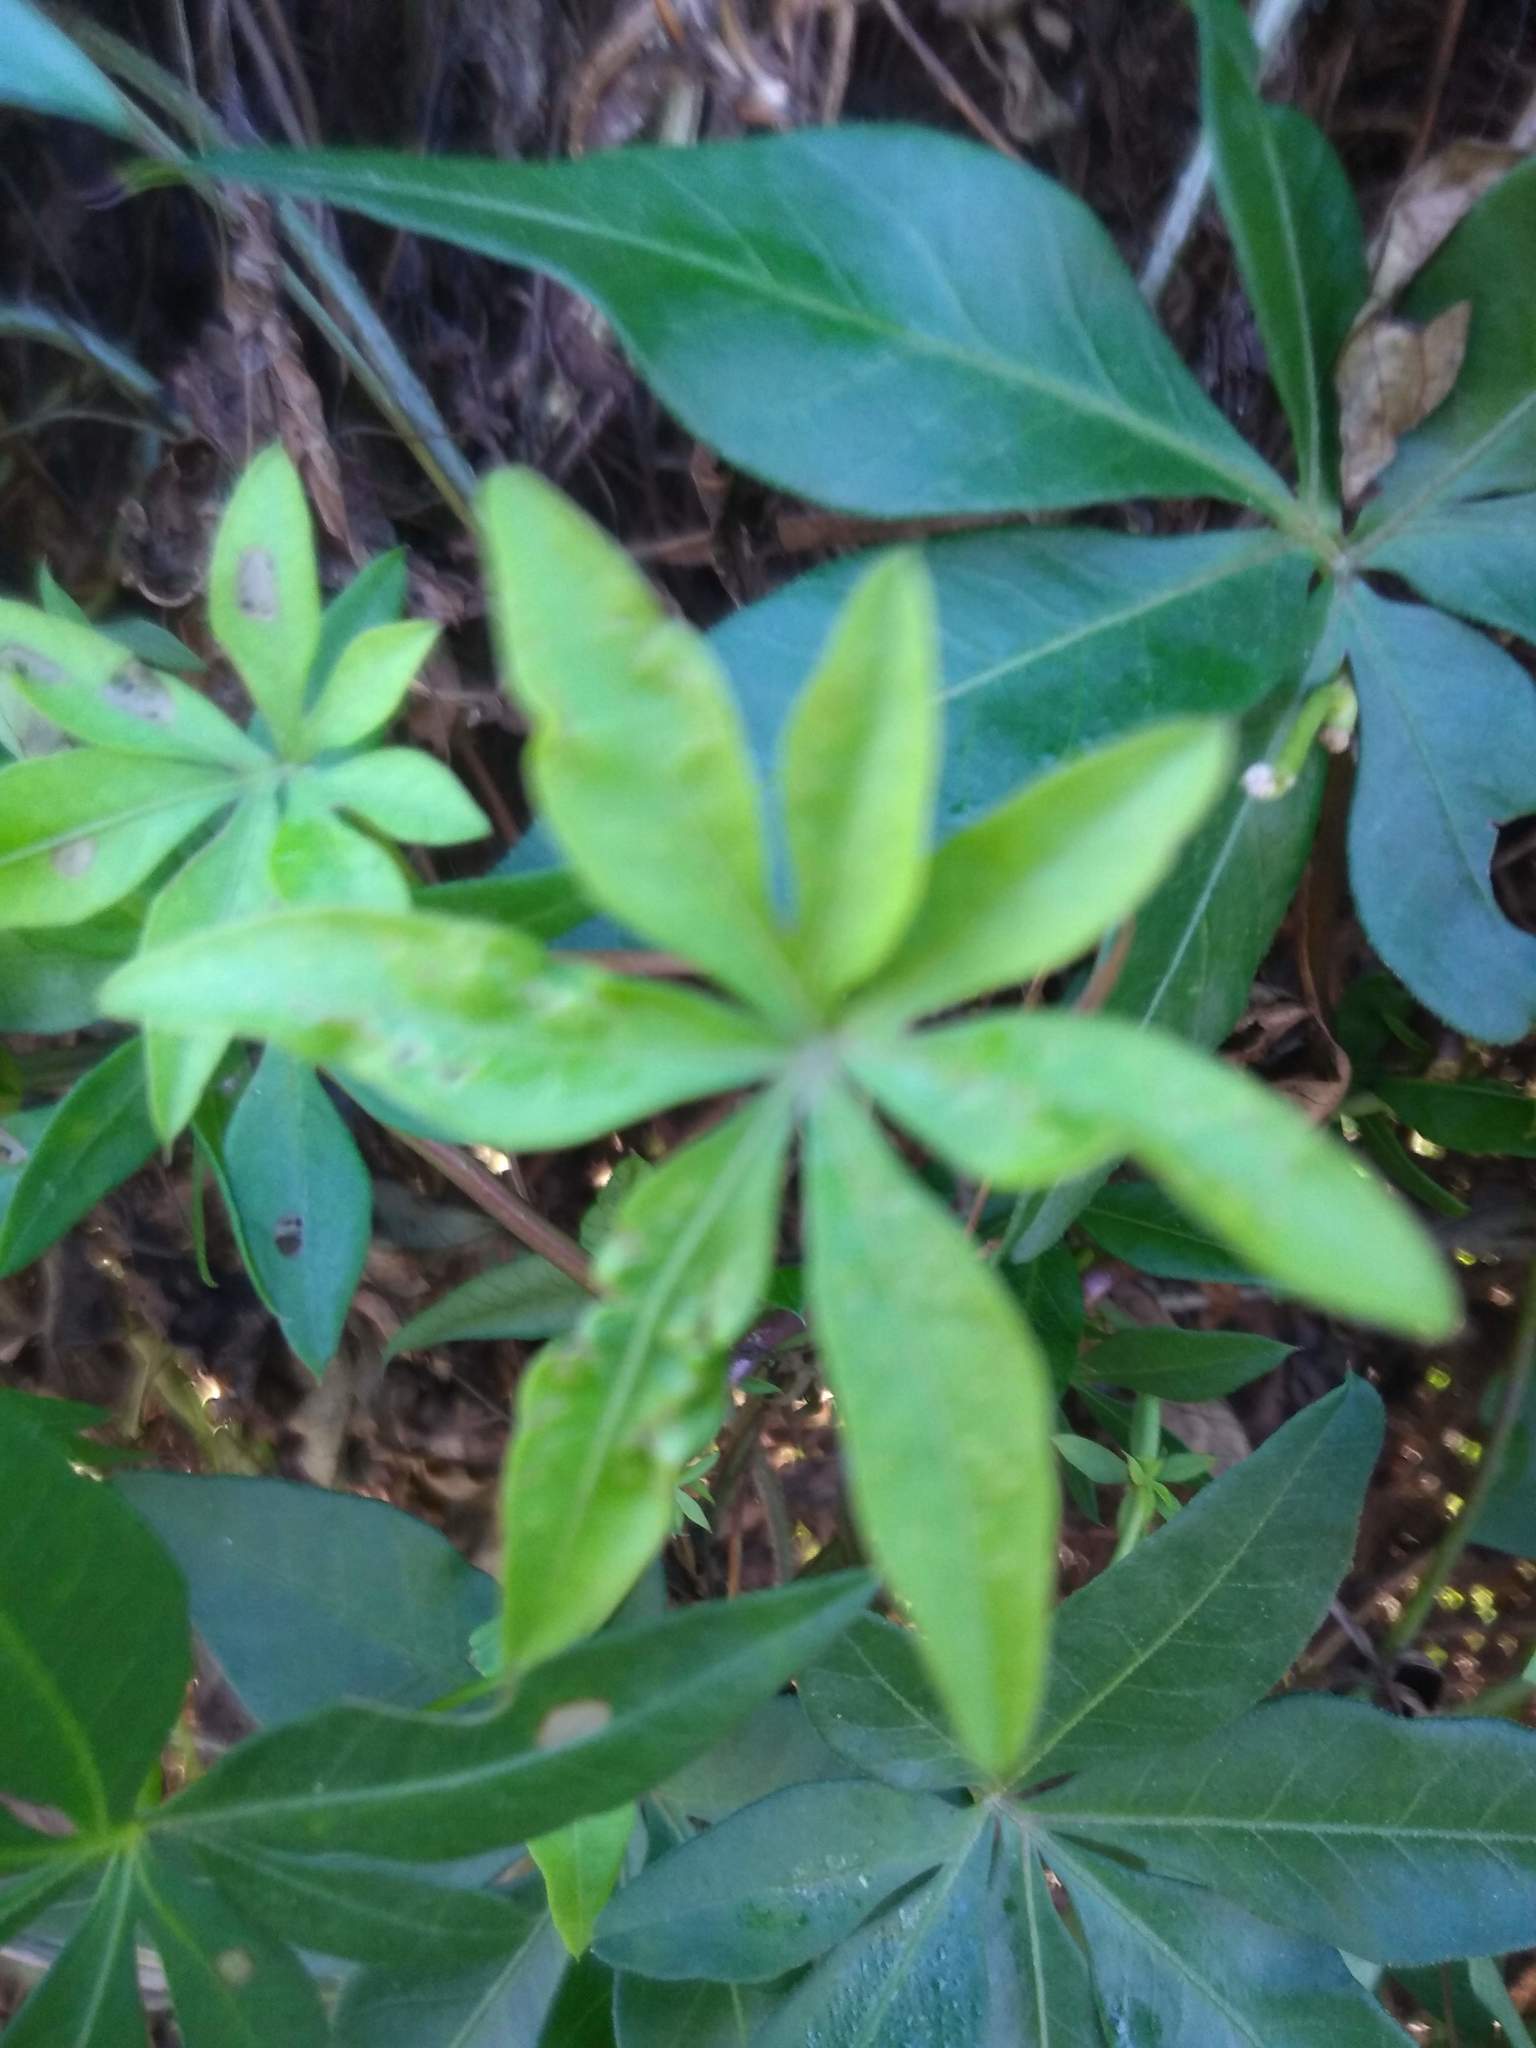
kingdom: Plantae
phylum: Tracheophyta
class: Magnoliopsida
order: Solanales
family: Convolvulaceae
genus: Ipomoea
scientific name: Ipomoea cairica
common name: Mile a minute vine
